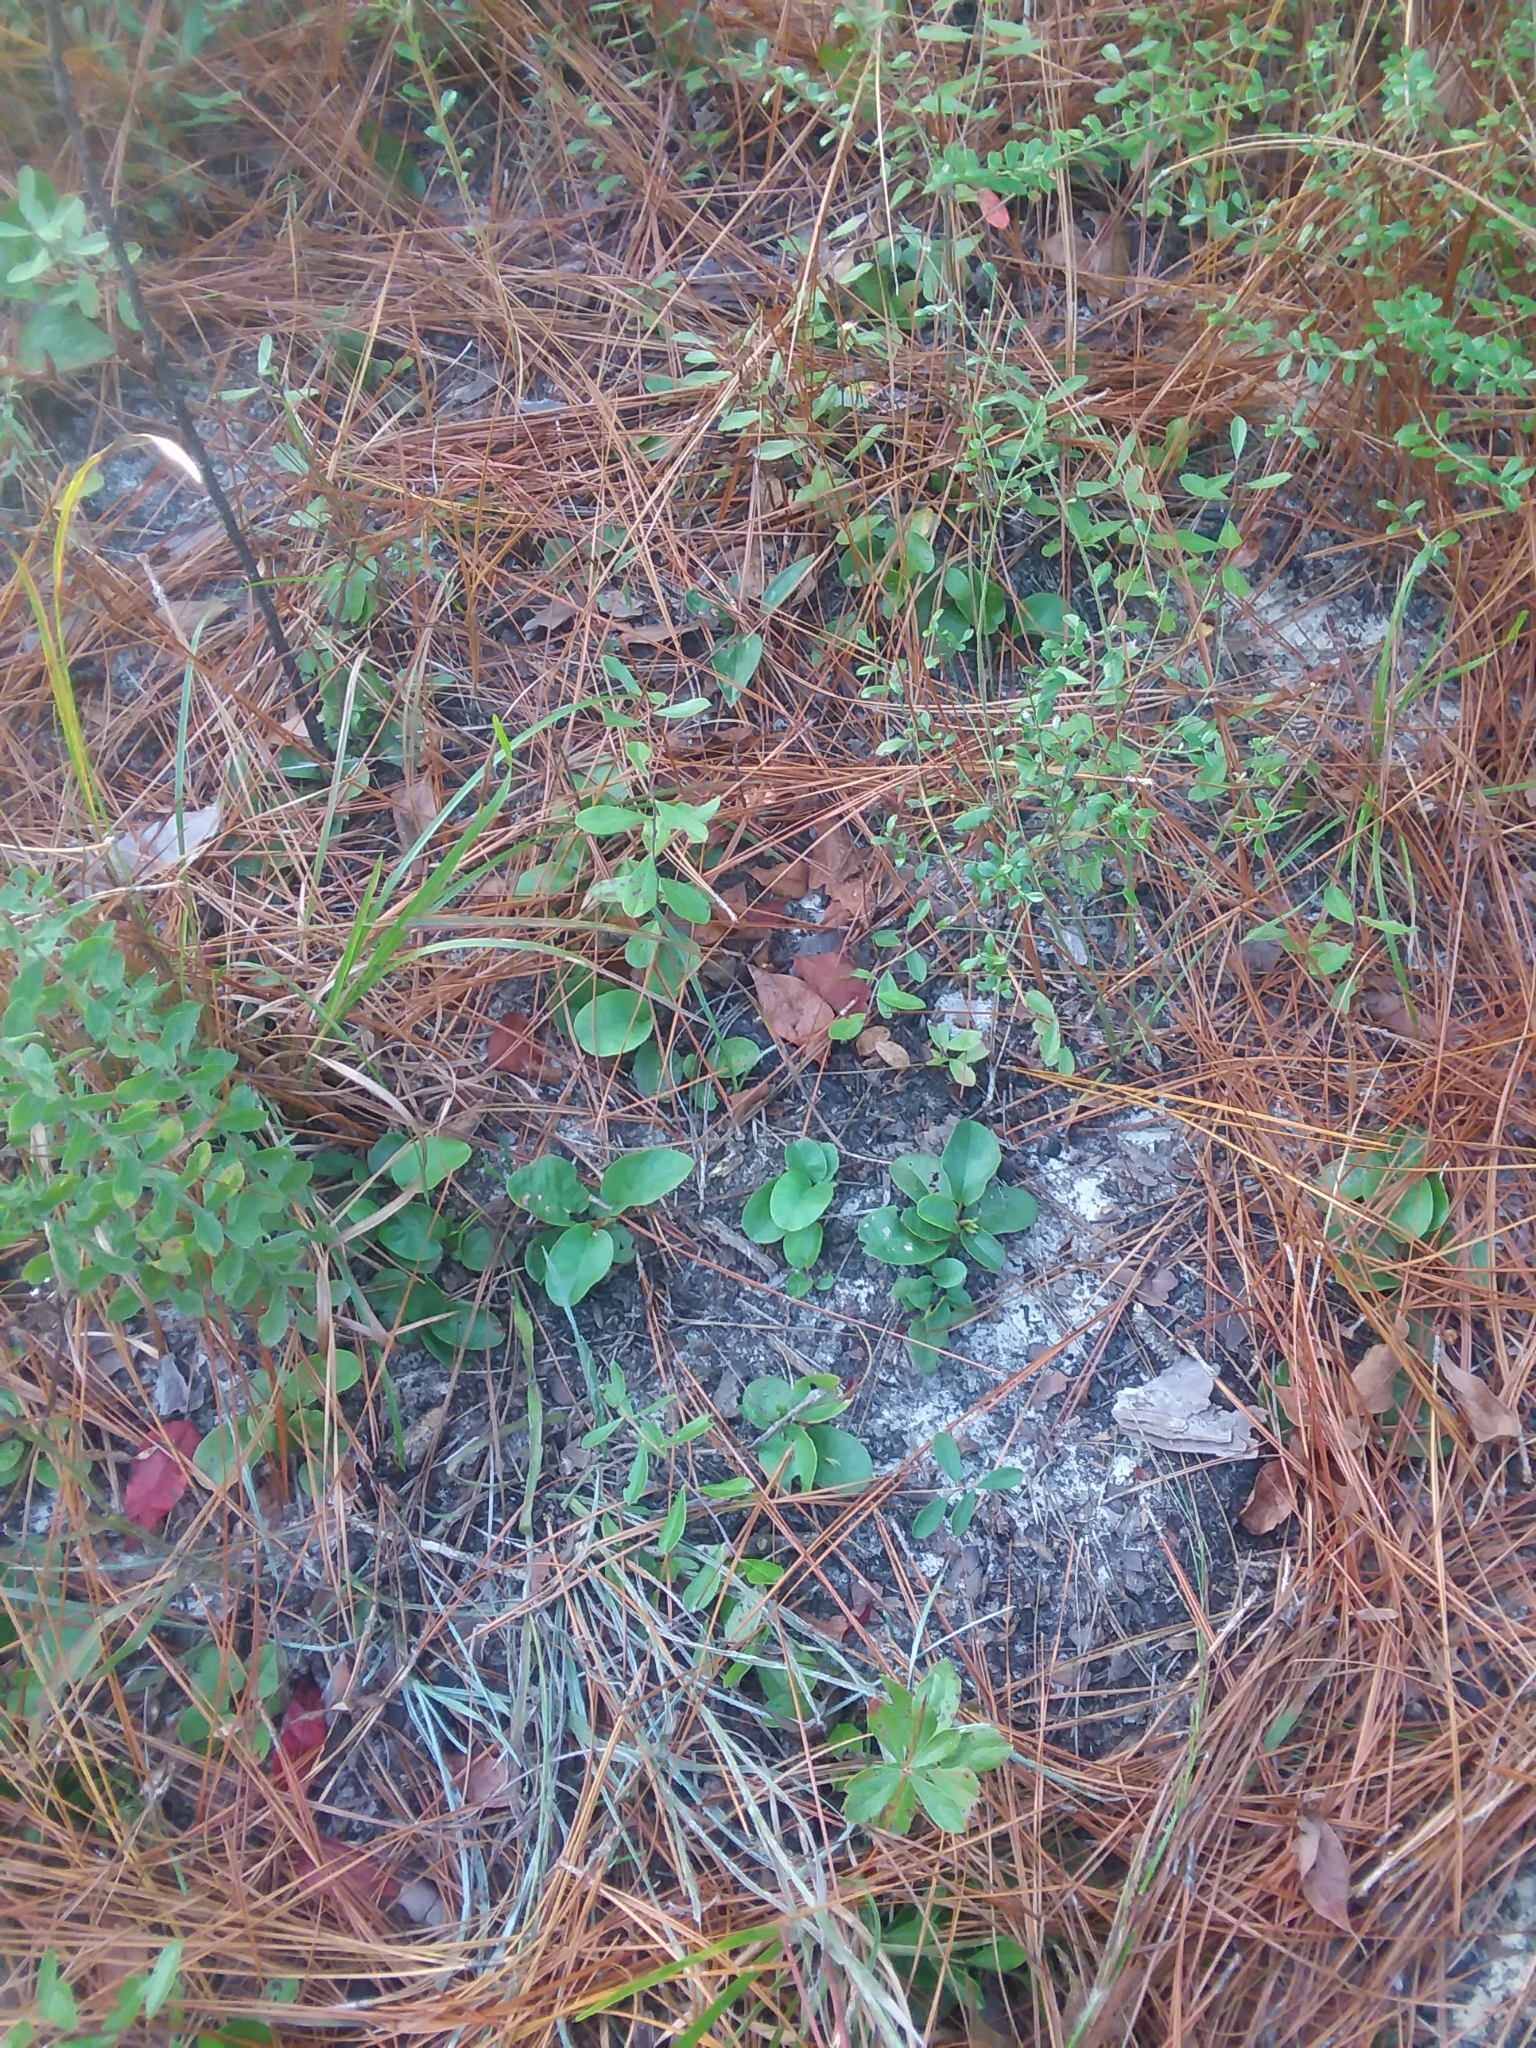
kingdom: Plantae
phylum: Tracheophyta
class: Magnoliopsida
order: Ericales
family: Ericaceae
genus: Epigaea
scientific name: Epigaea repens
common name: Gravelroot
